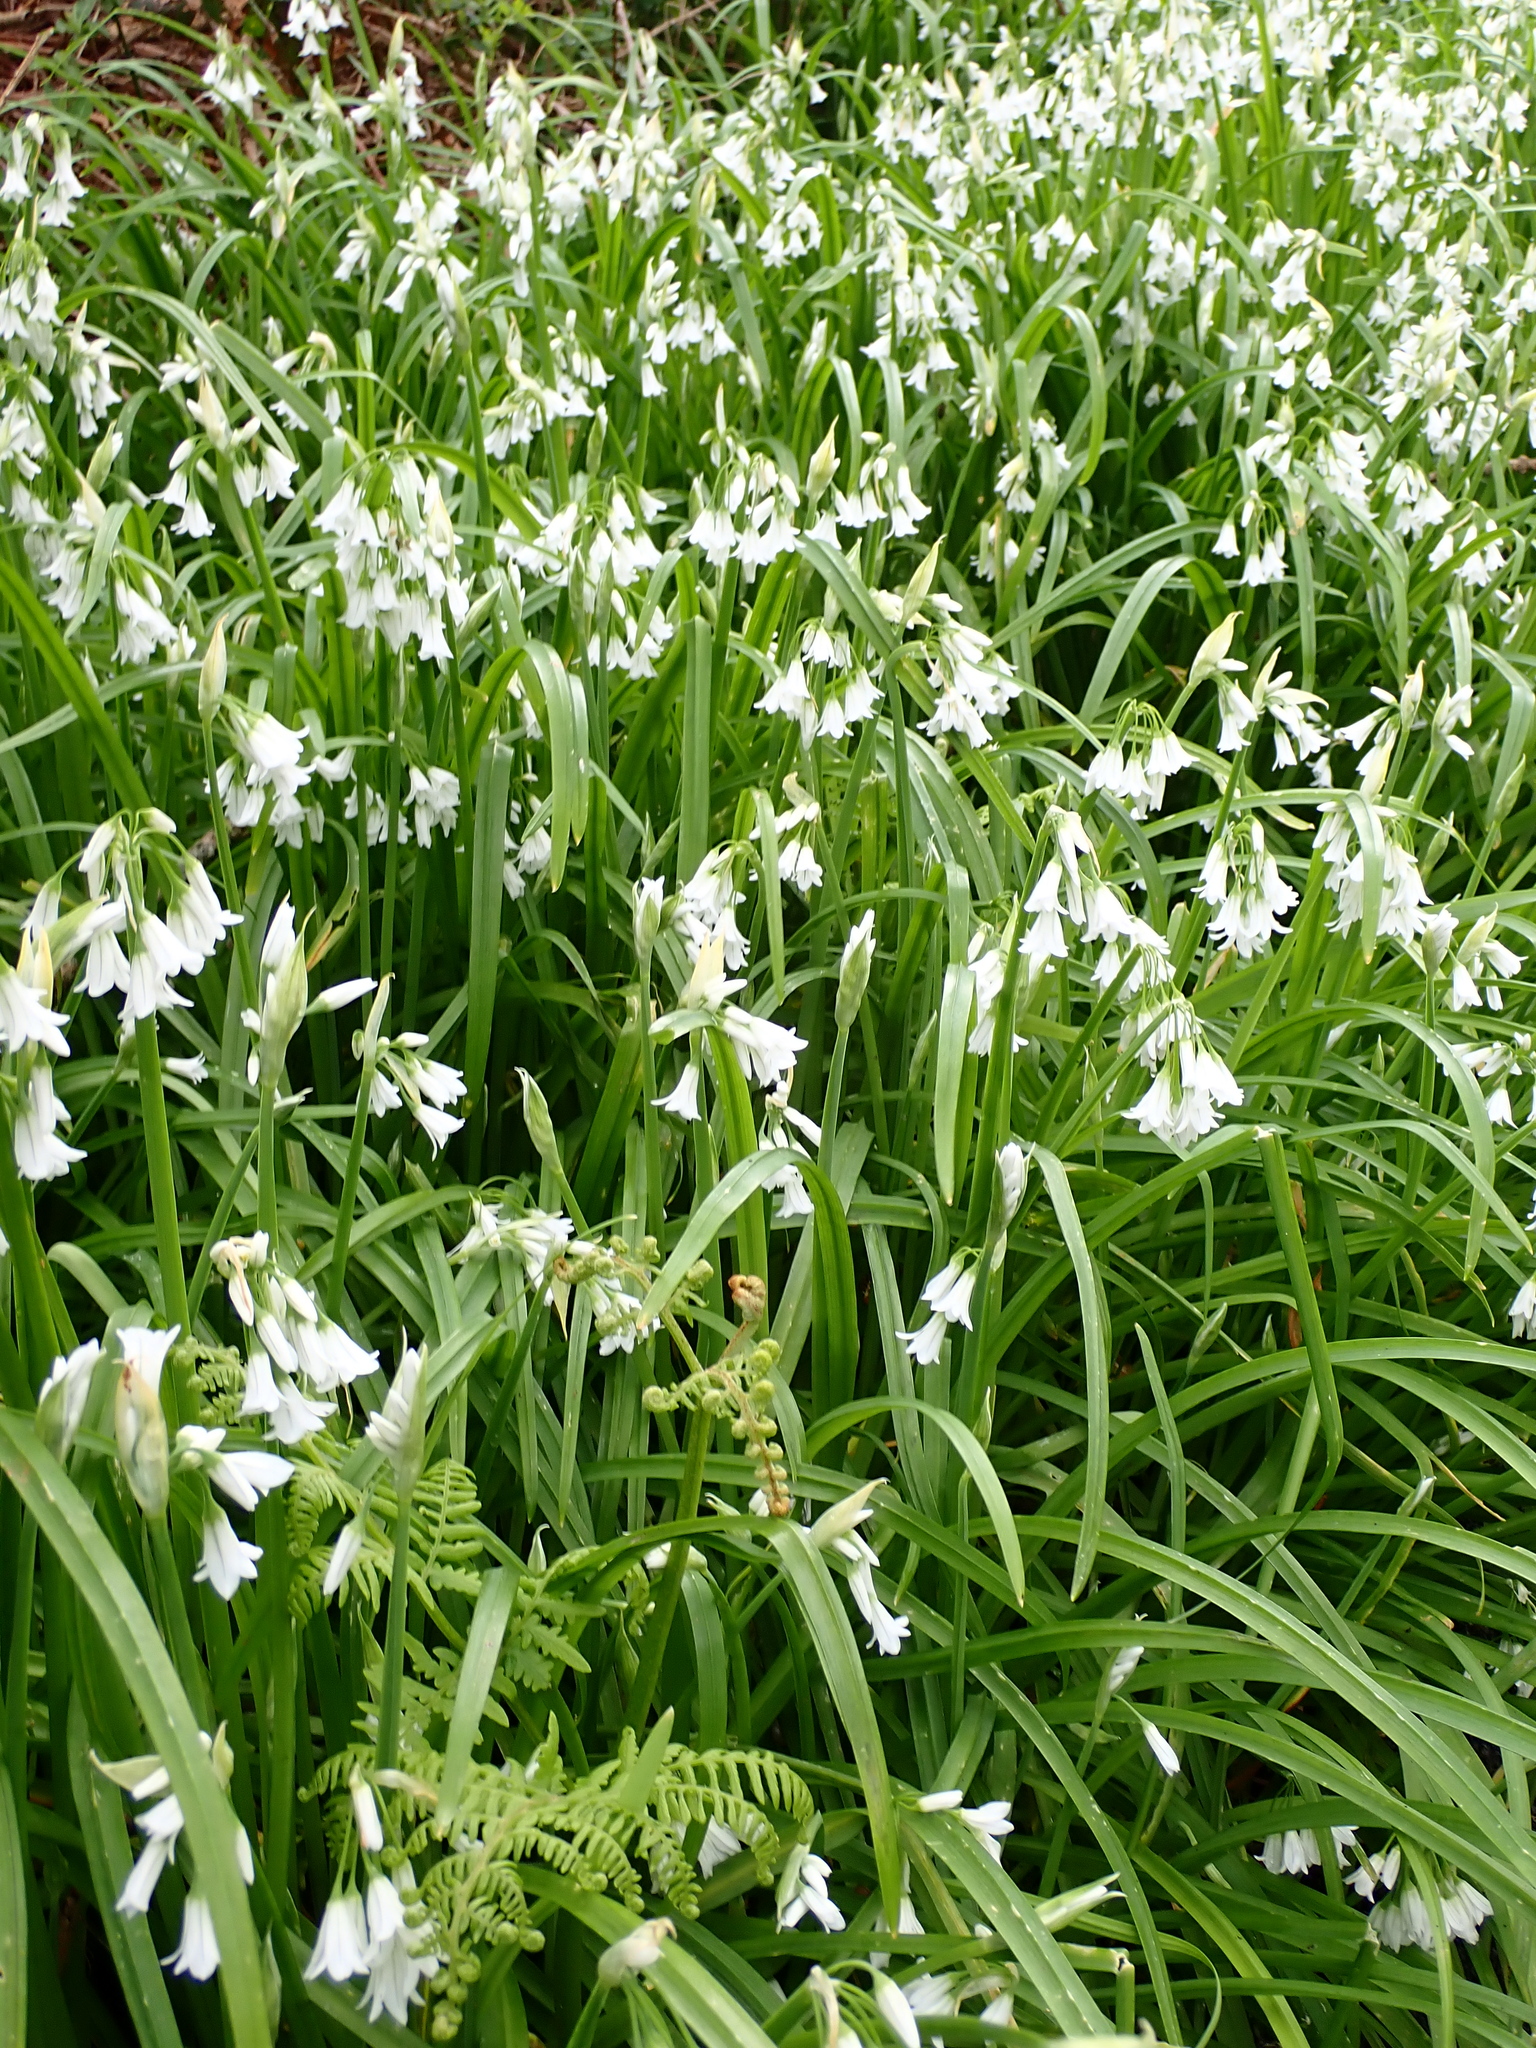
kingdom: Plantae
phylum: Tracheophyta
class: Liliopsida
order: Asparagales
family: Amaryllidaceae
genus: Allium
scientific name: Allium triquetrum
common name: Three-cornered garlic
